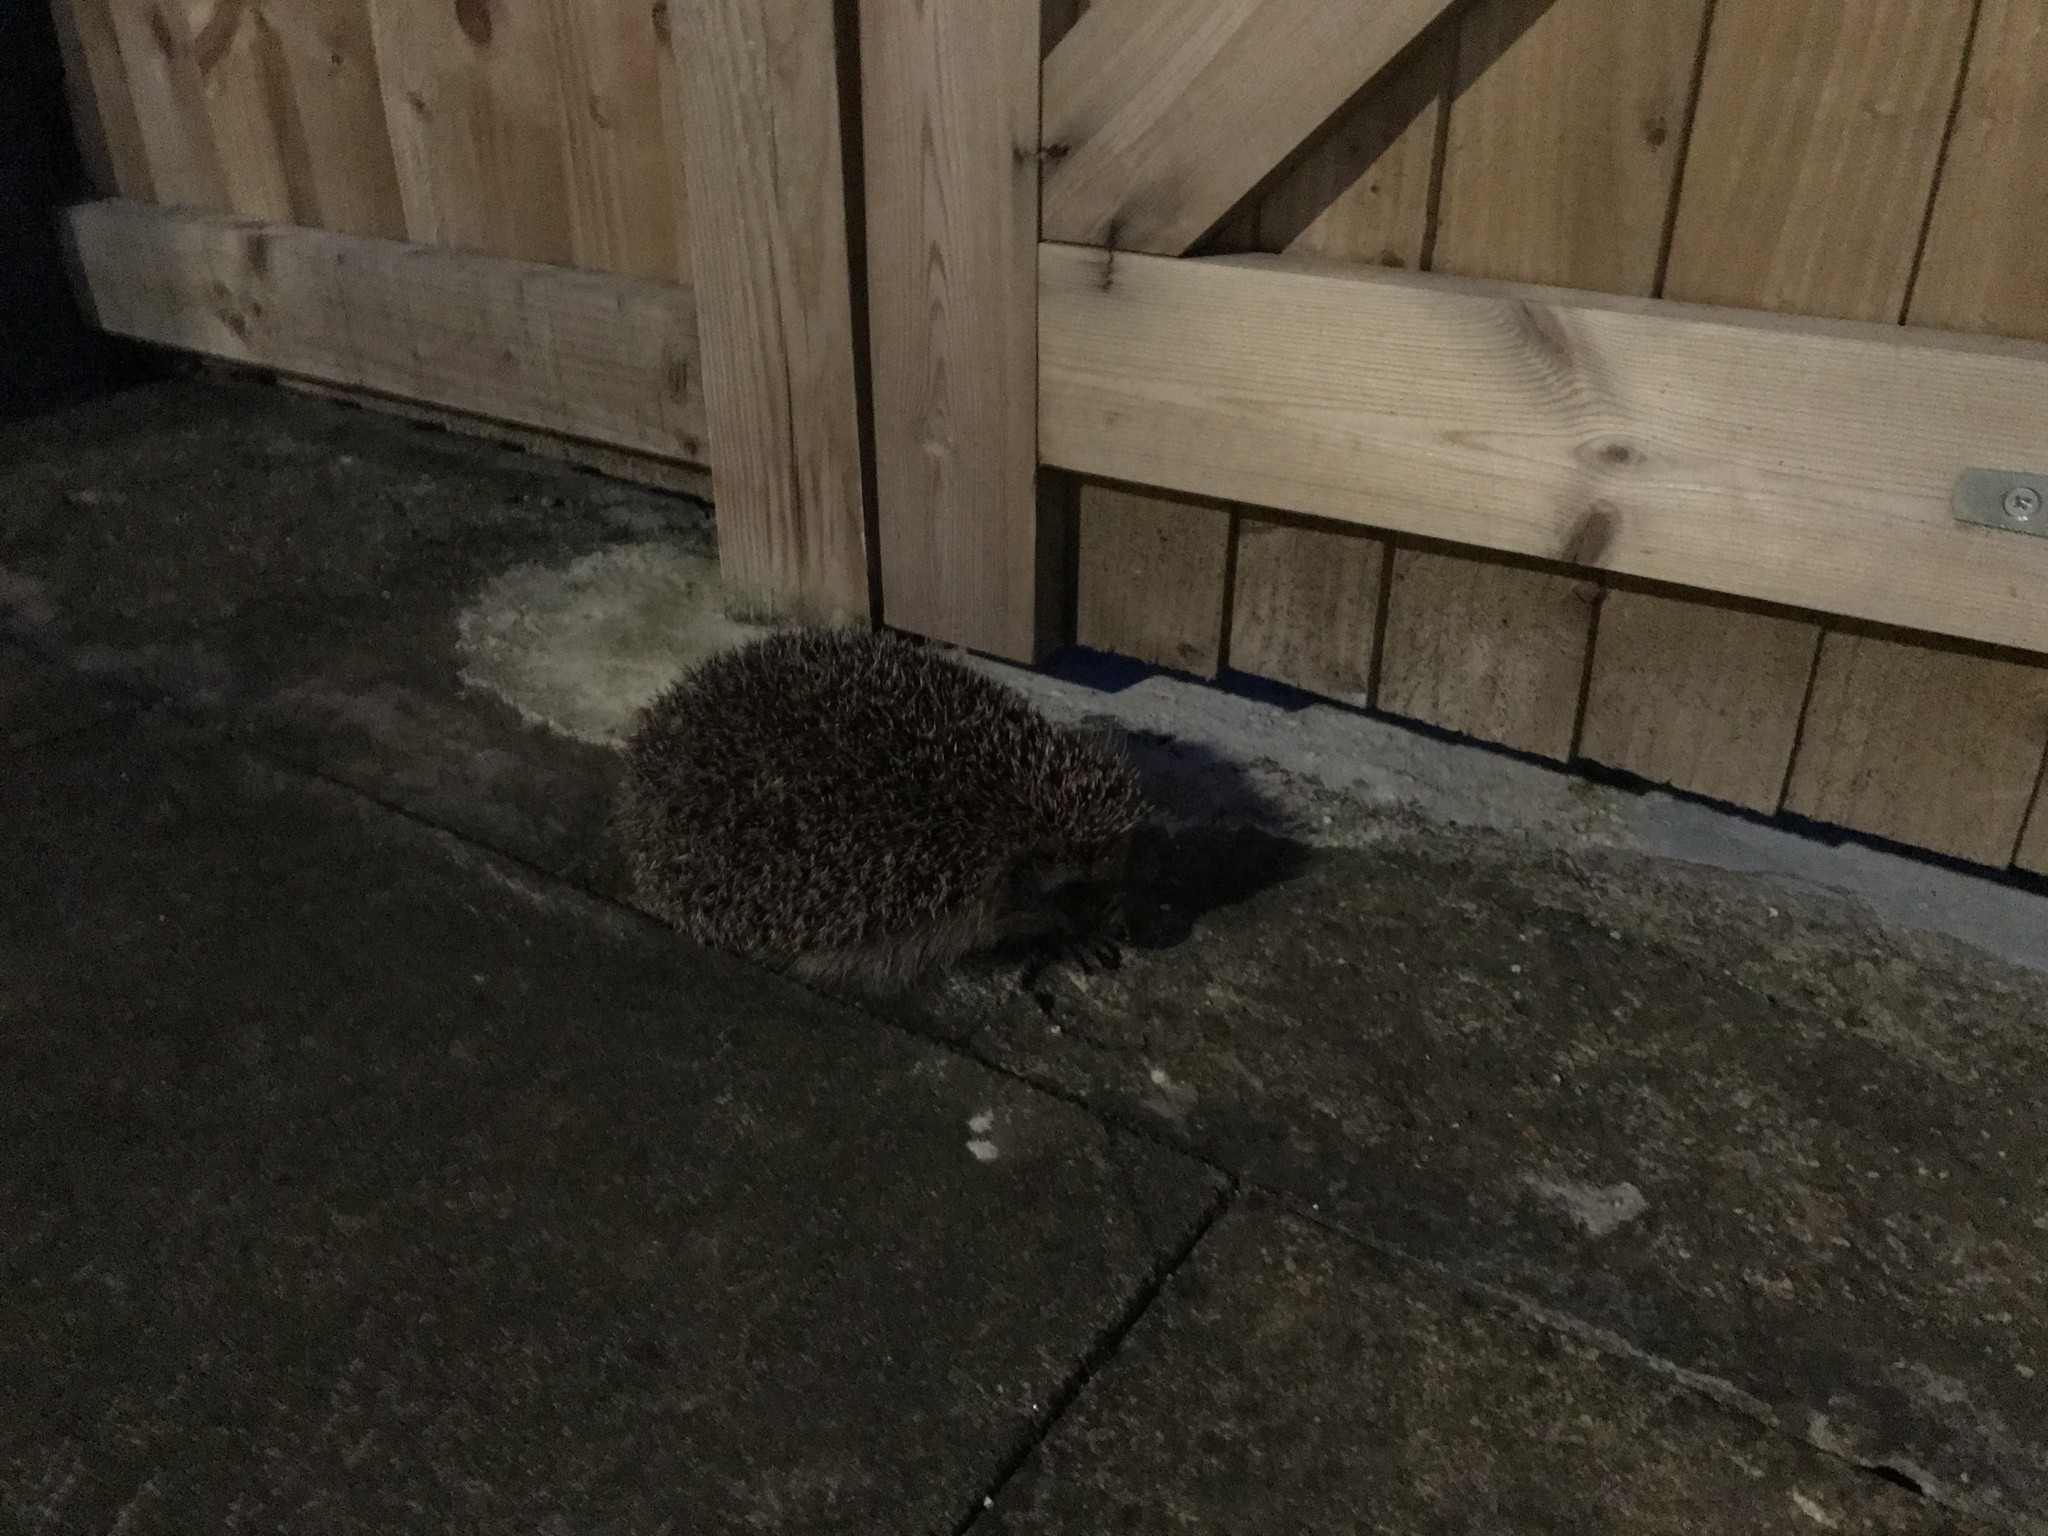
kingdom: Animalia
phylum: Chordata
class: Mammalia
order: Erinaceomorpha
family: Erinaceidae
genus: Erinaceus
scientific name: Erinaceus europaeus
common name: West european hedgehog
